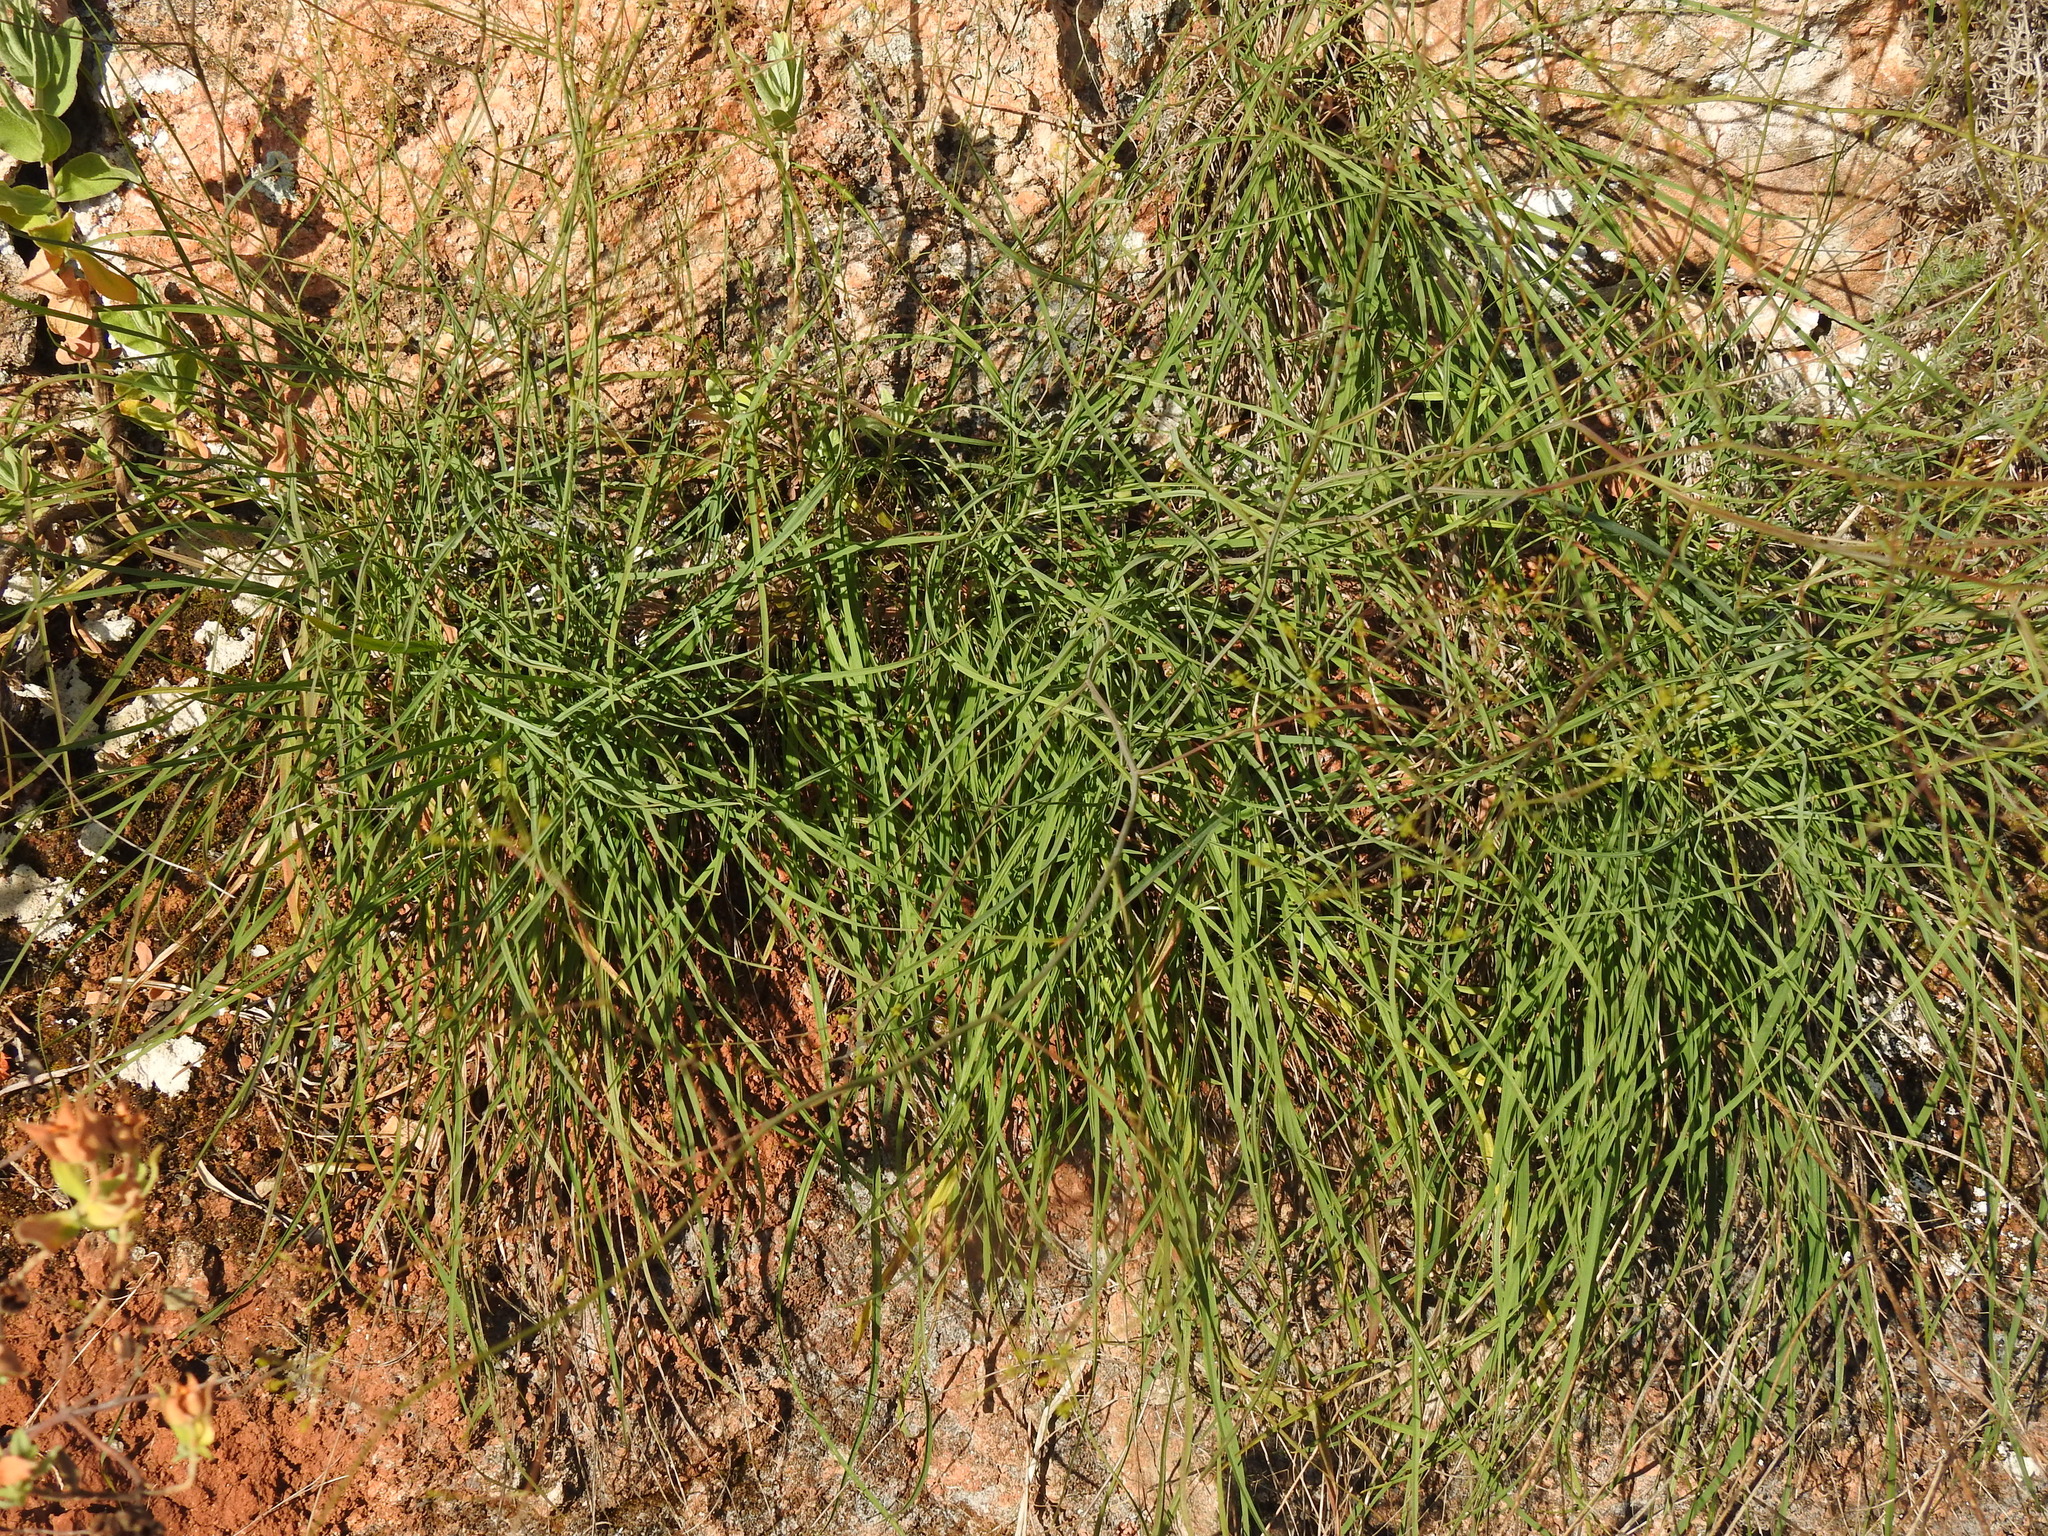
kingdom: Plantae
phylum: Tracheophyta
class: Magnoliopsida
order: Apiales
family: Apiaceae
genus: Bupleurum
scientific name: Bupleurum rigidum
